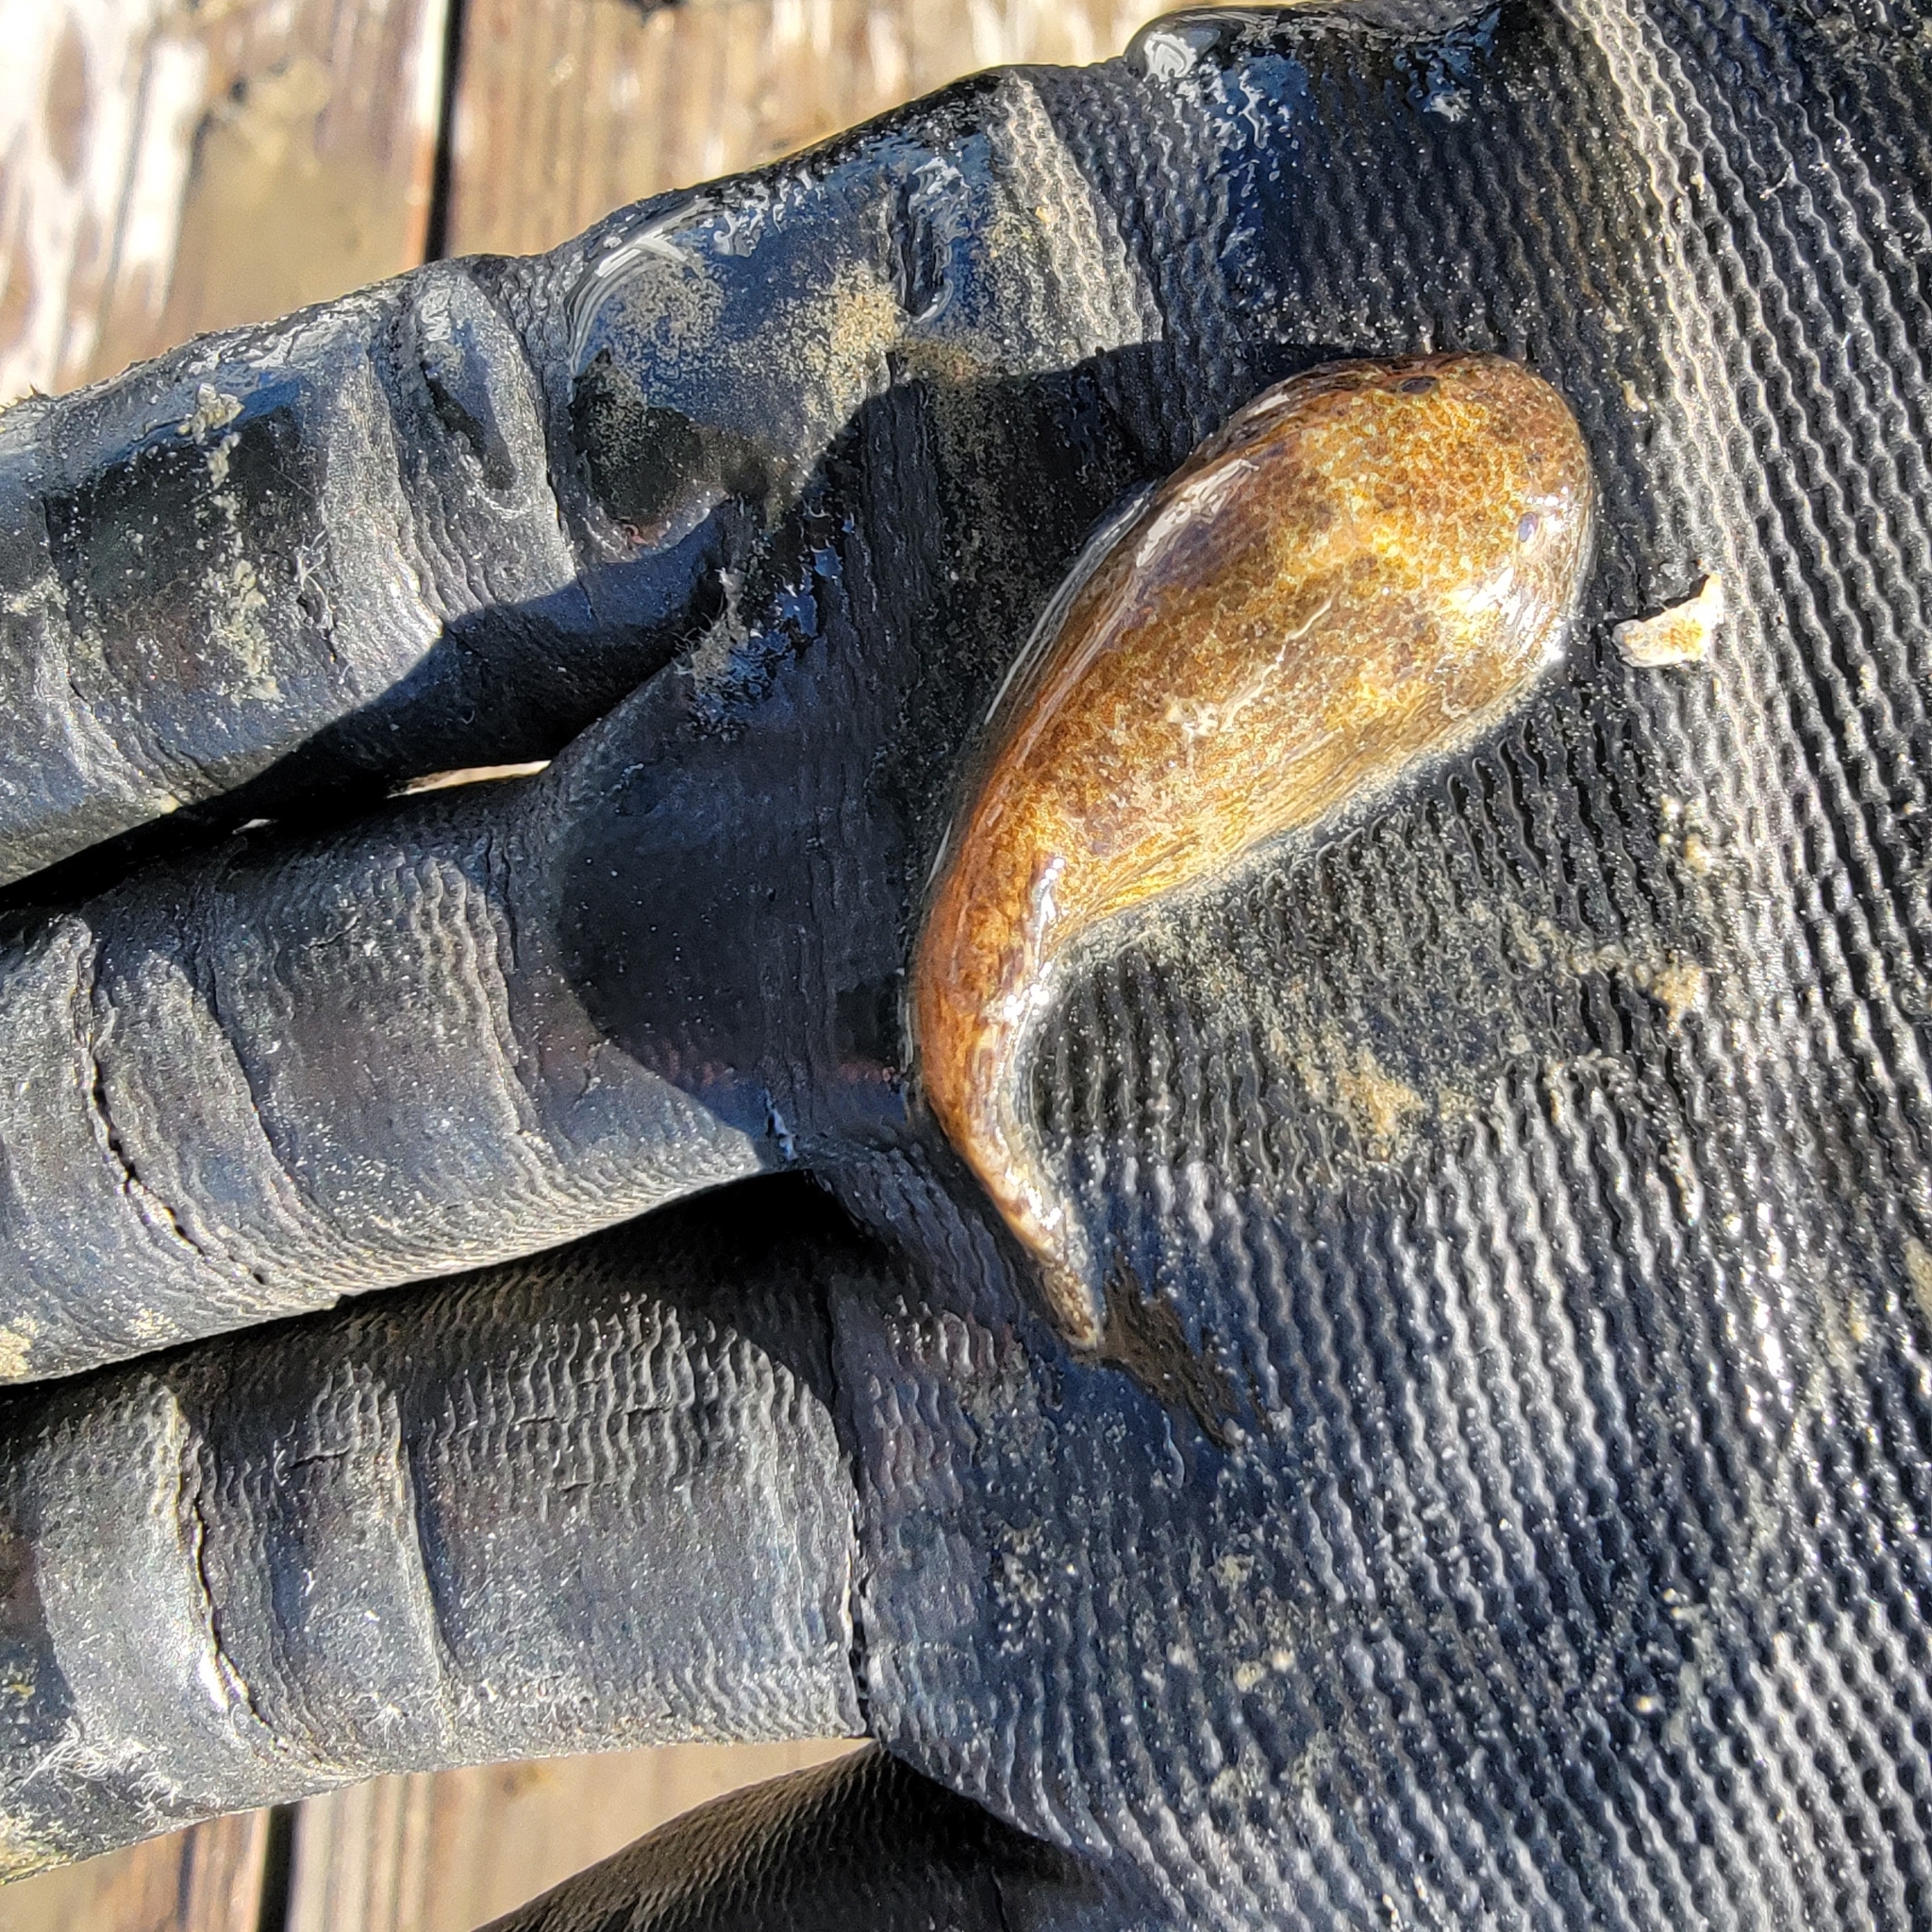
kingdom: Animalia
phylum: Chordata
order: Gobiesociformes
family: Gobiesocidae
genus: Gobiesox
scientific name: Gobiesox strumosus
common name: Skilletfish
